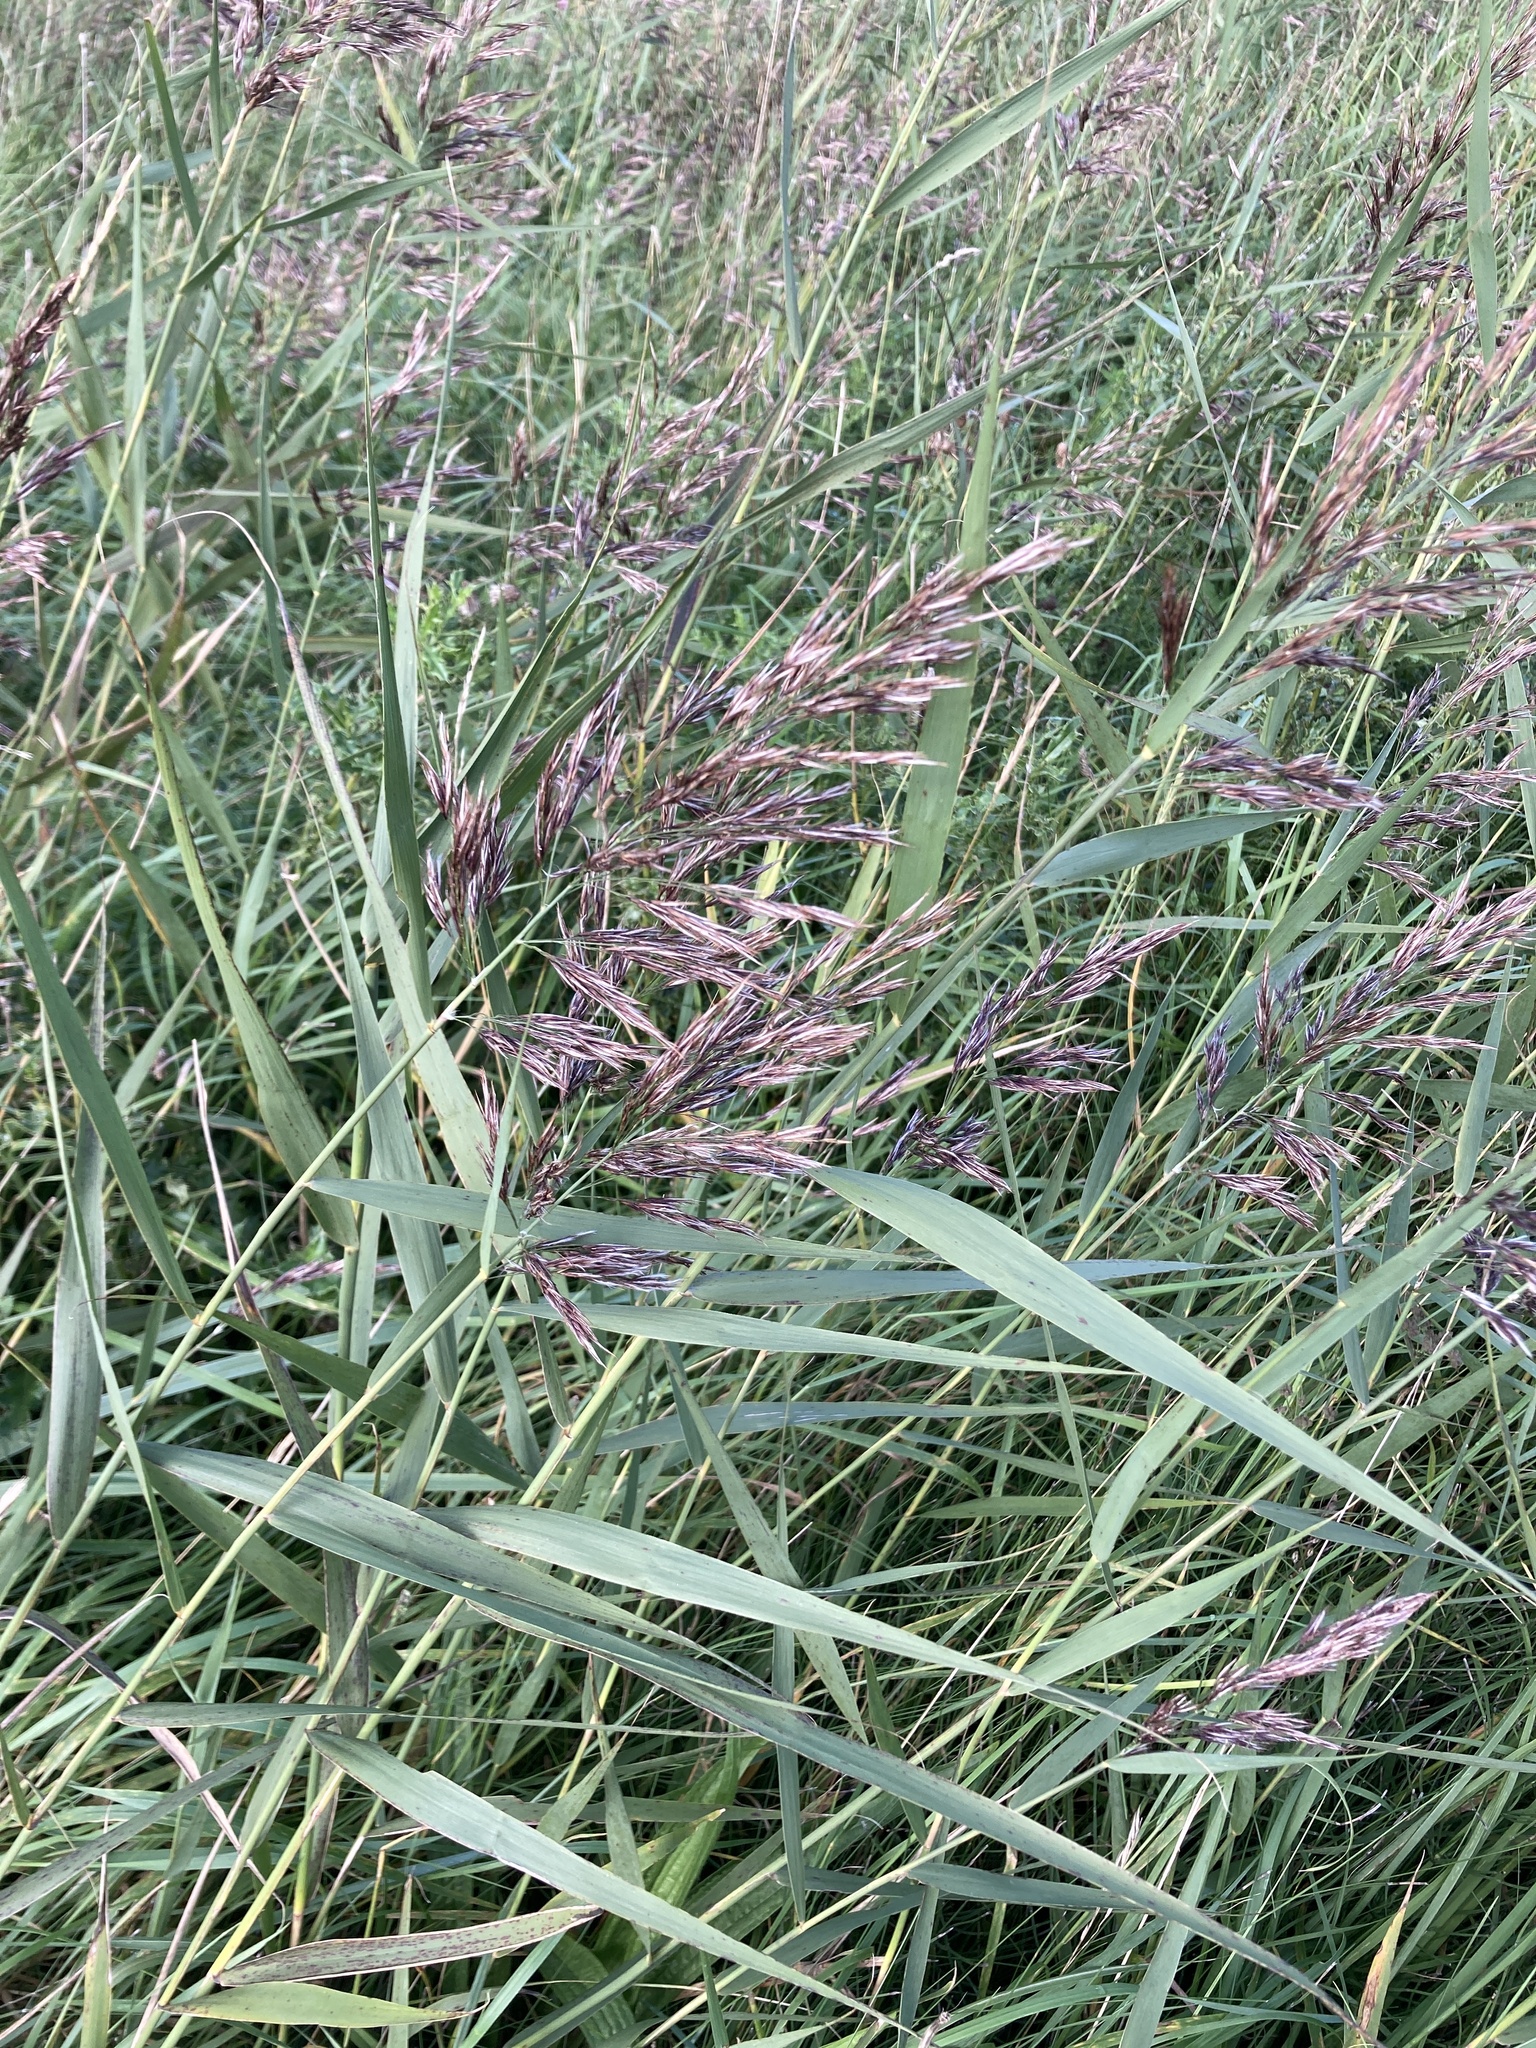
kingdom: Plantae
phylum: Tracheophyta
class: Liliopsida
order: Poales
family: Poaceae
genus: Phragmites
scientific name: Phragmites australis
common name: Common reed
